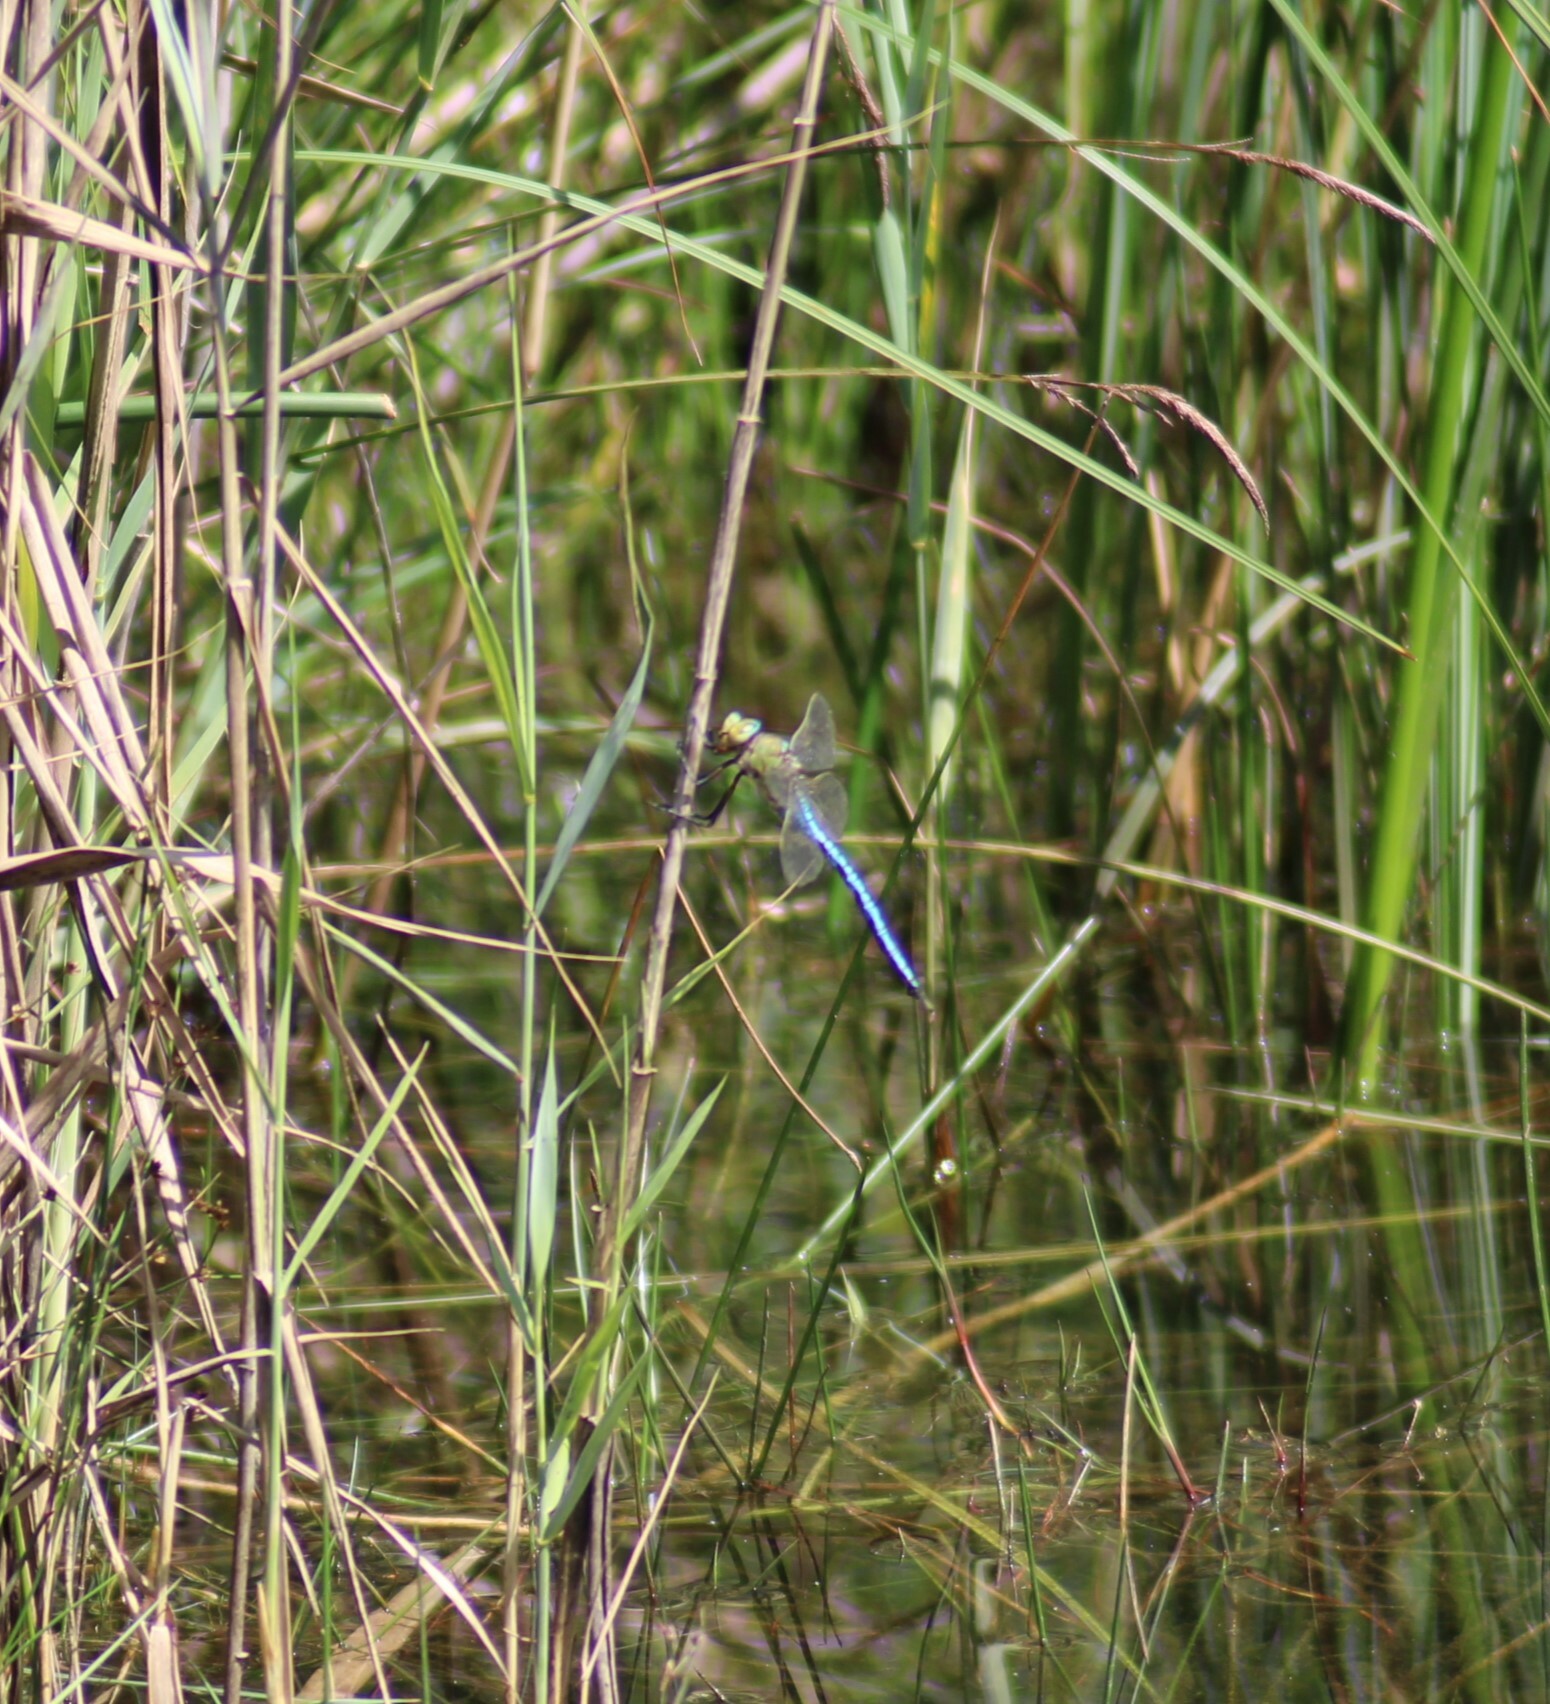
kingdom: Animalia
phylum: Arthropoda
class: Insecta
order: Odonata
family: Aeshnidae
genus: Anax
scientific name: Anax imperator
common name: Emperor dragonfly
